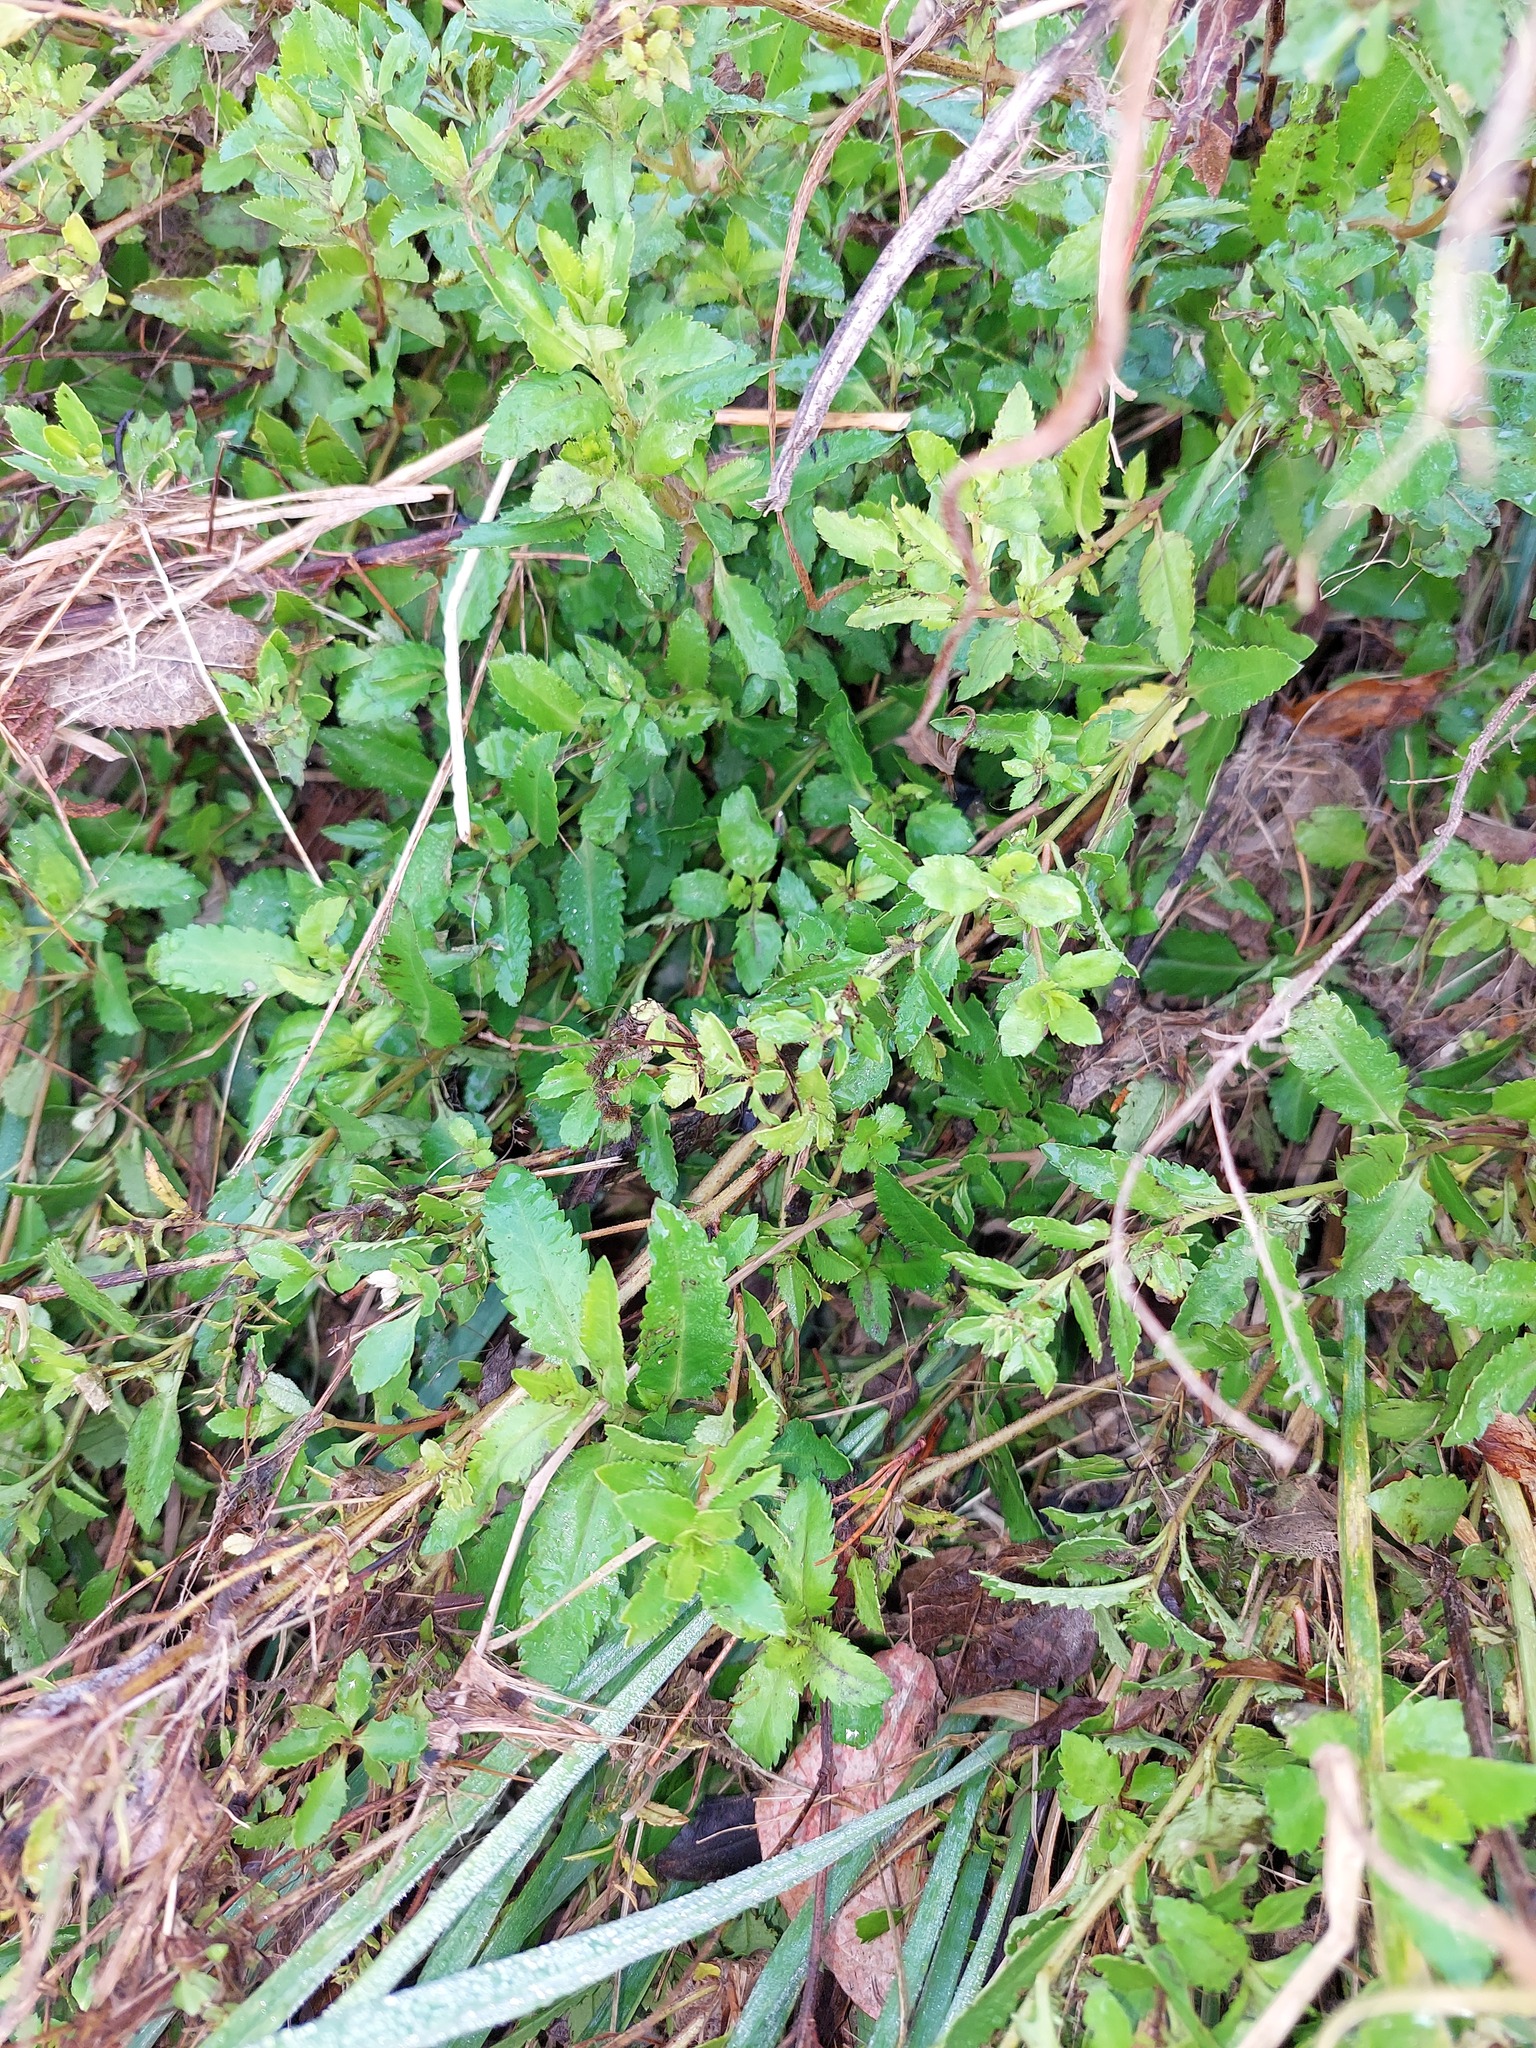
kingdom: Plantae
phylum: Tracheophyta
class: Magnoliopsida
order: Saxifragales
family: Haloragaceae
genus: Haloragis
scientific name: Haloragis erecta
